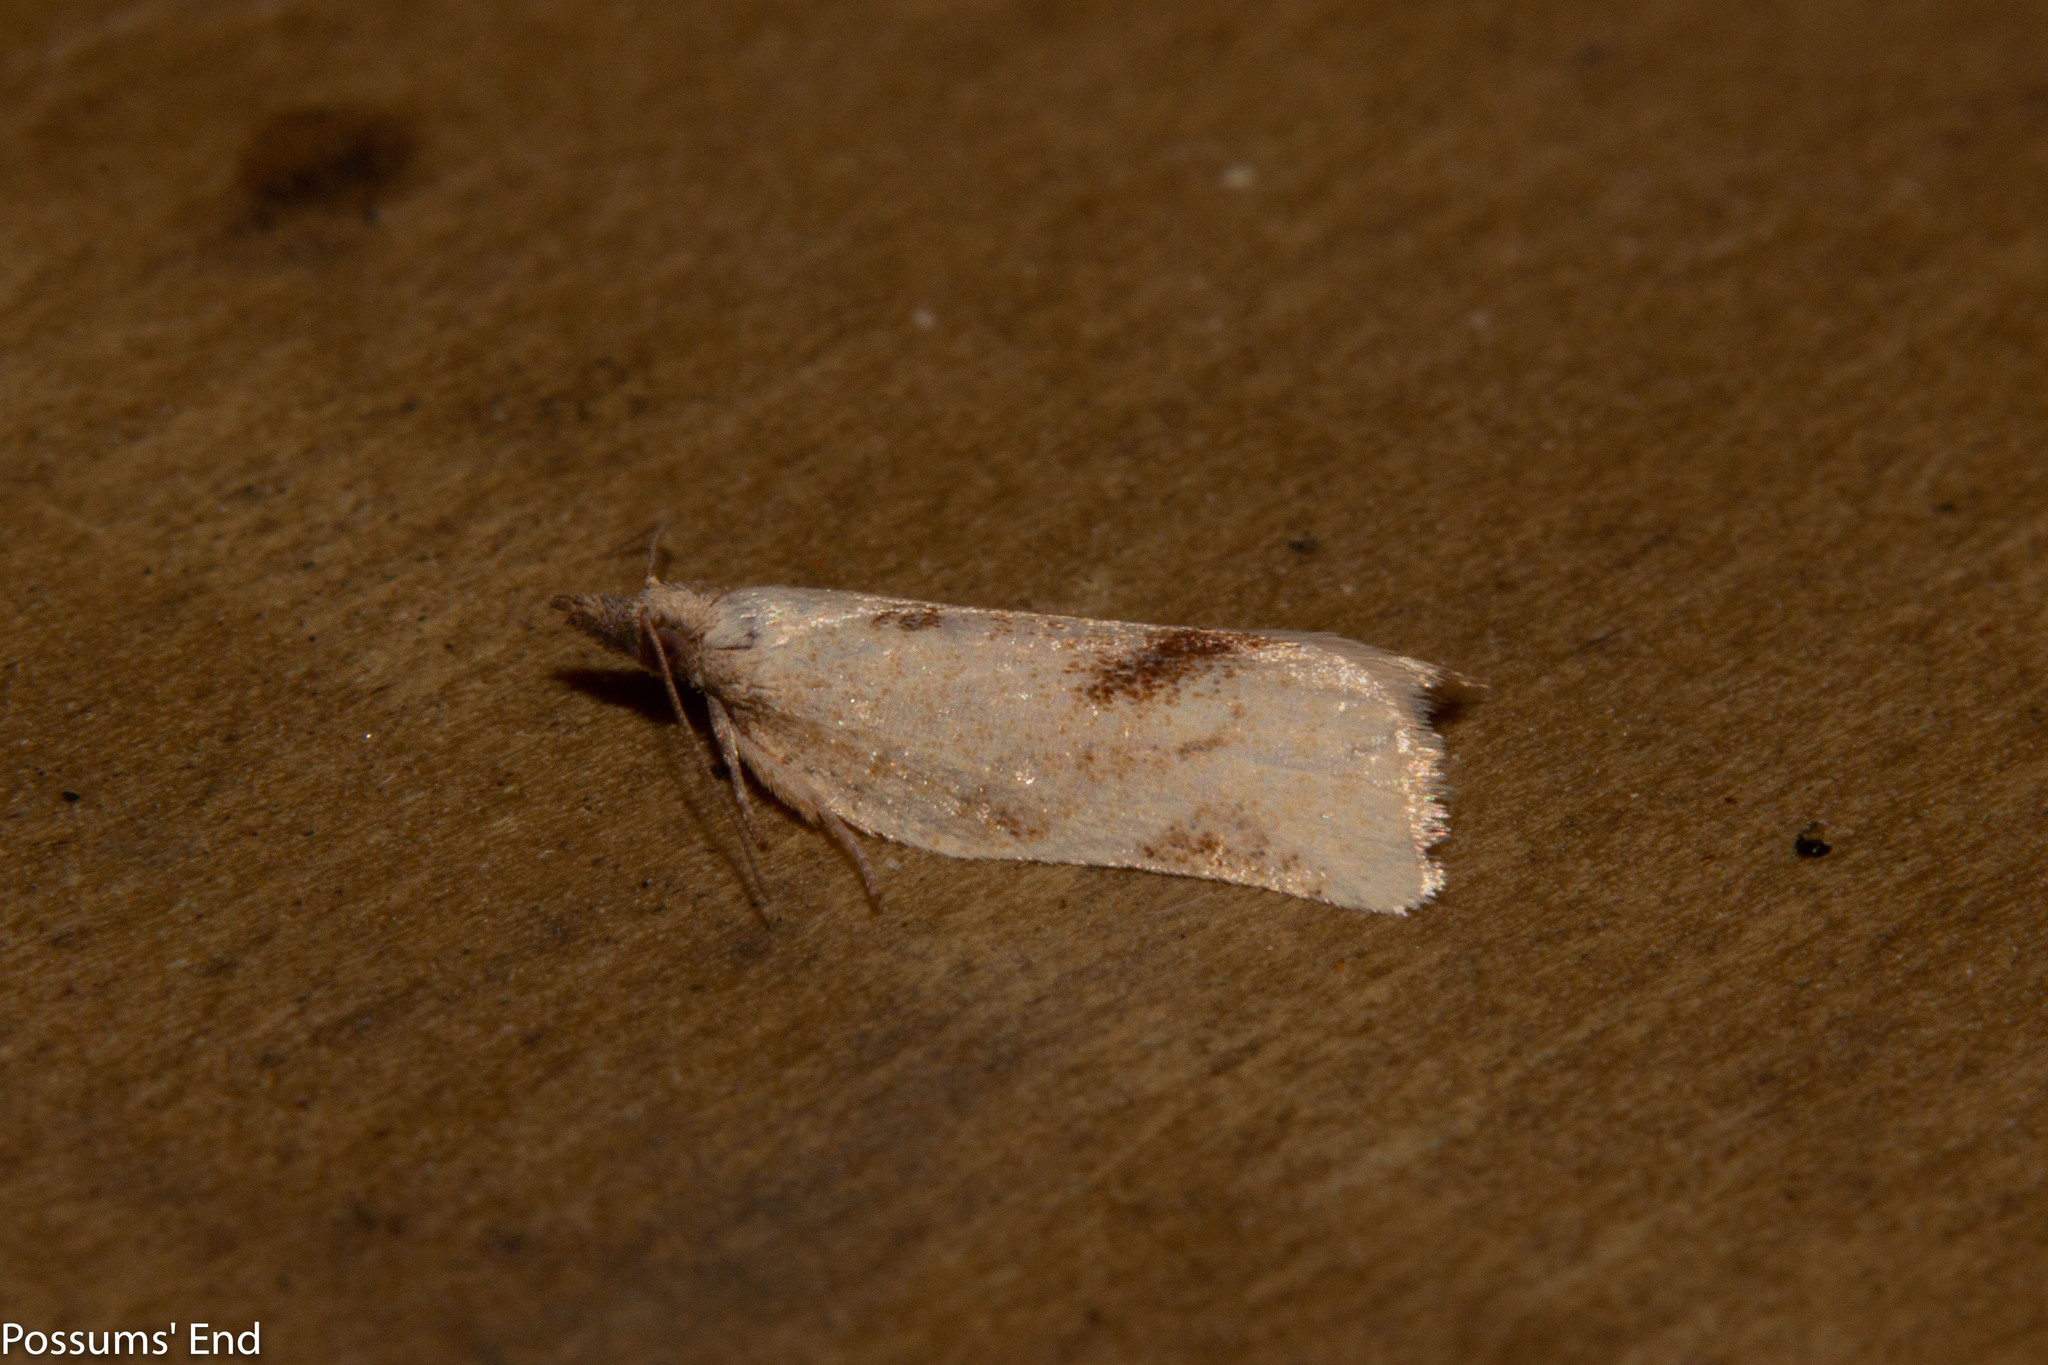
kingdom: Animalia
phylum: Arthropoda
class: Insecta
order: Lepidoptera
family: Tortricidae
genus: Catamacta
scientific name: Catamacta gavisana
